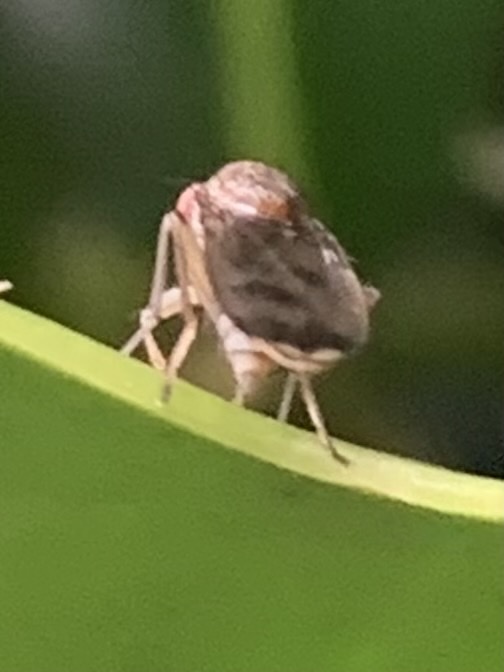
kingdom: Animalia
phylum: Arthropoda
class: Insecta
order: Diptera
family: Heleomyzidae
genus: Suillia
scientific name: Suillia variegata
